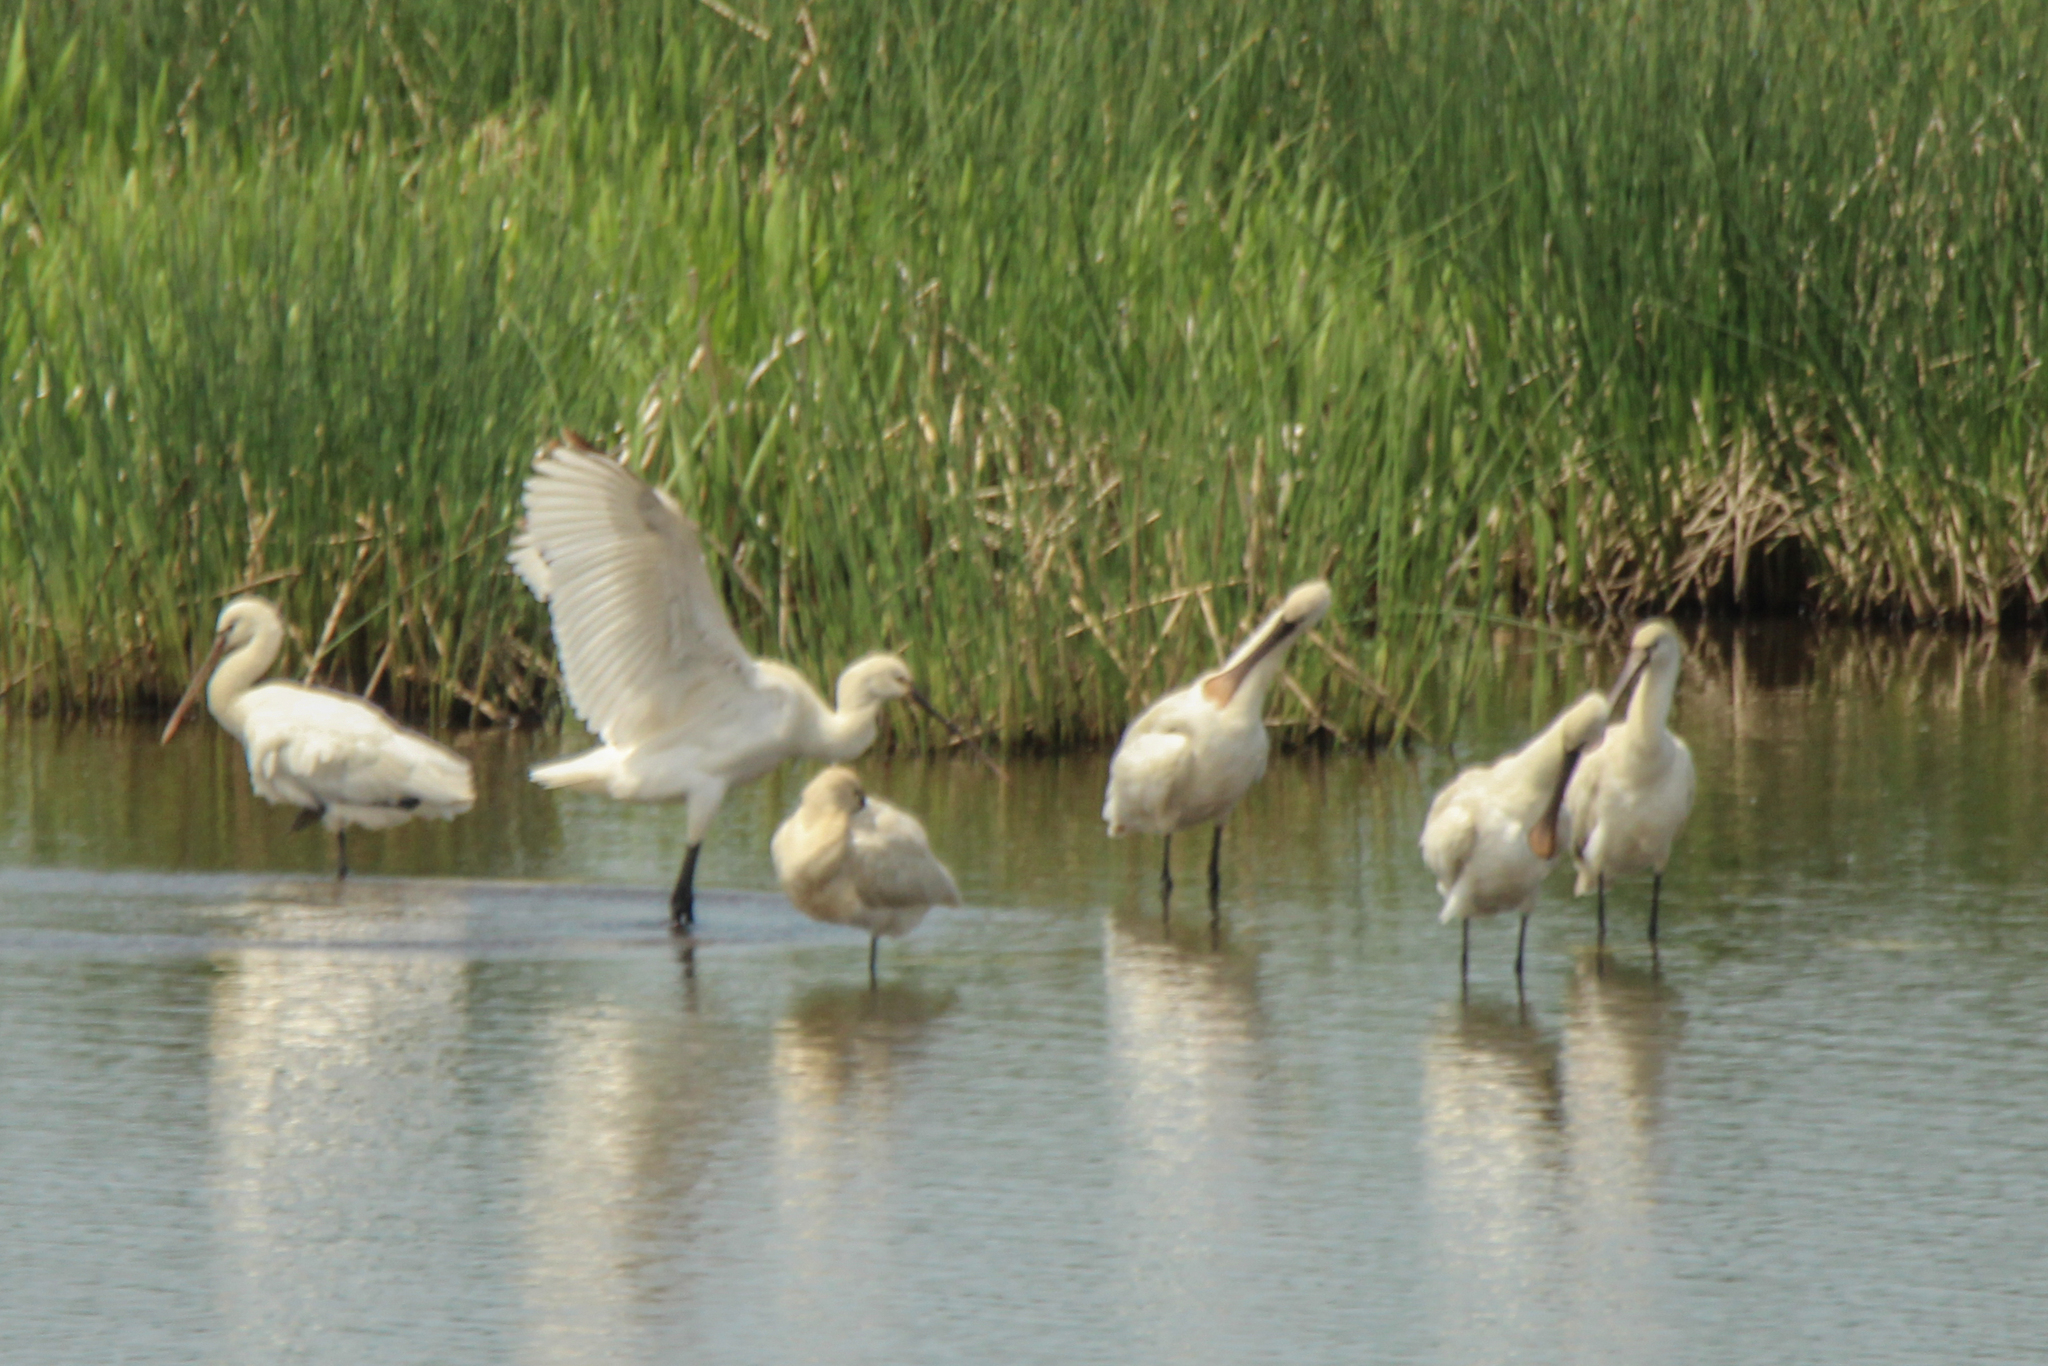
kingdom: Animalia
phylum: Chordata
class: Aves
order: Pelecaniformes
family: Threskiornithidae
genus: Platalea
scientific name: Platalea leucorodia
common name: Eurasian spoonbill
